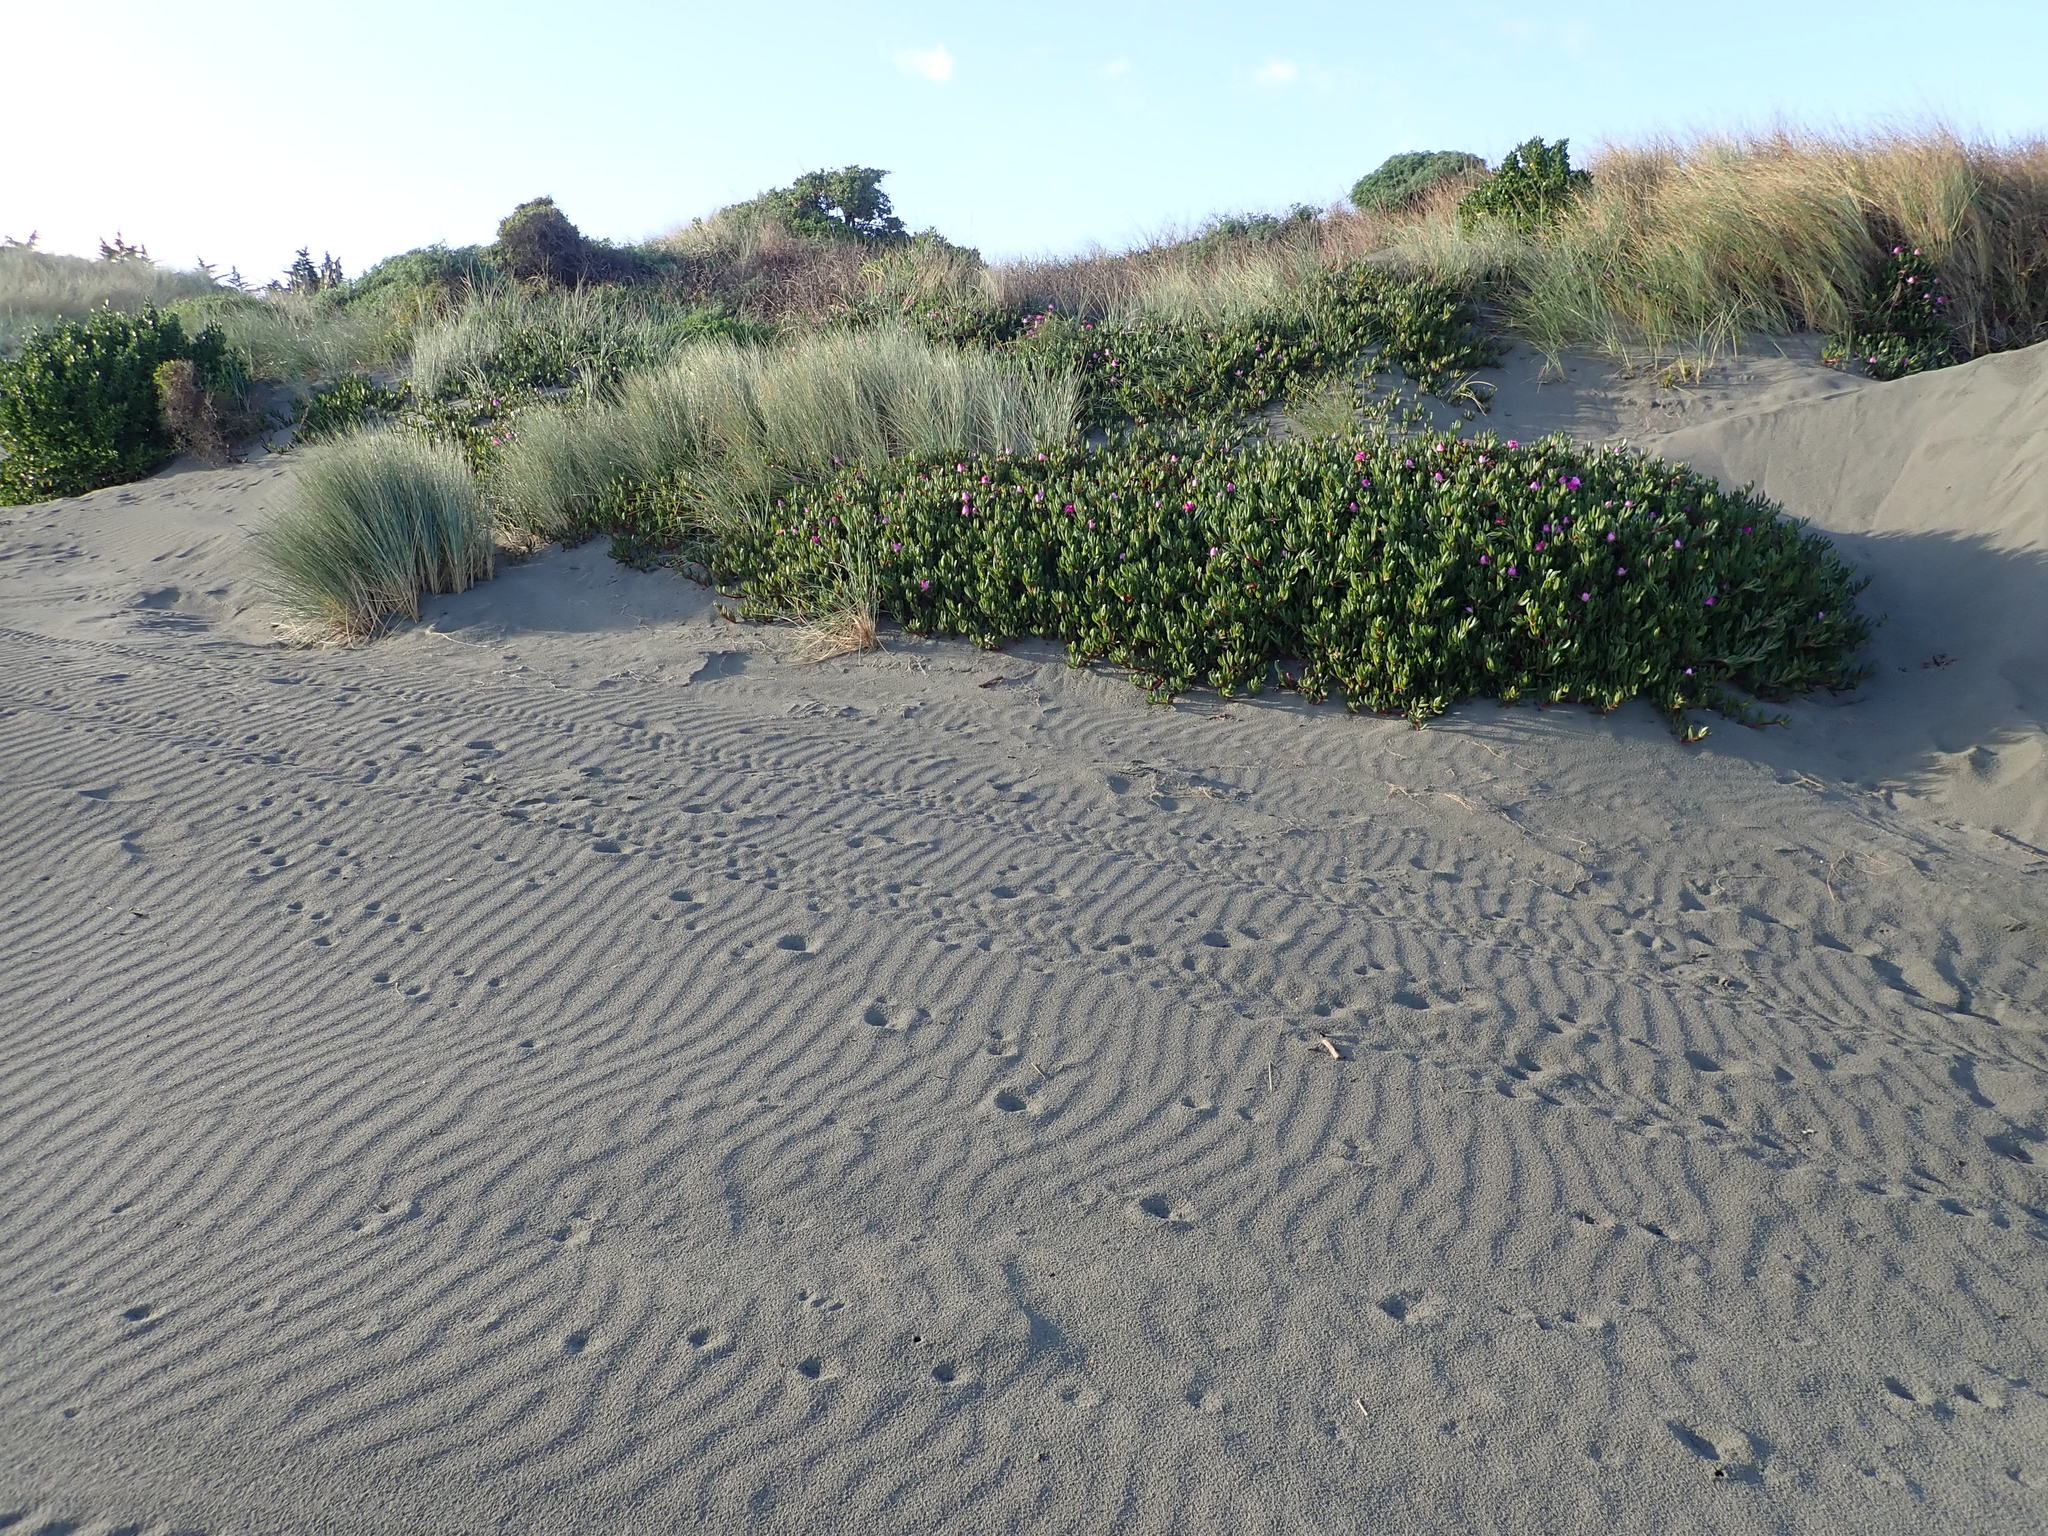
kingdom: Plantae
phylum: Tracheophyta
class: Magnoliopsida
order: Caryophyllales
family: Aizoaceae
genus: Carpobrotus
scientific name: Carpobrotus chilensis
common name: Sea fig
